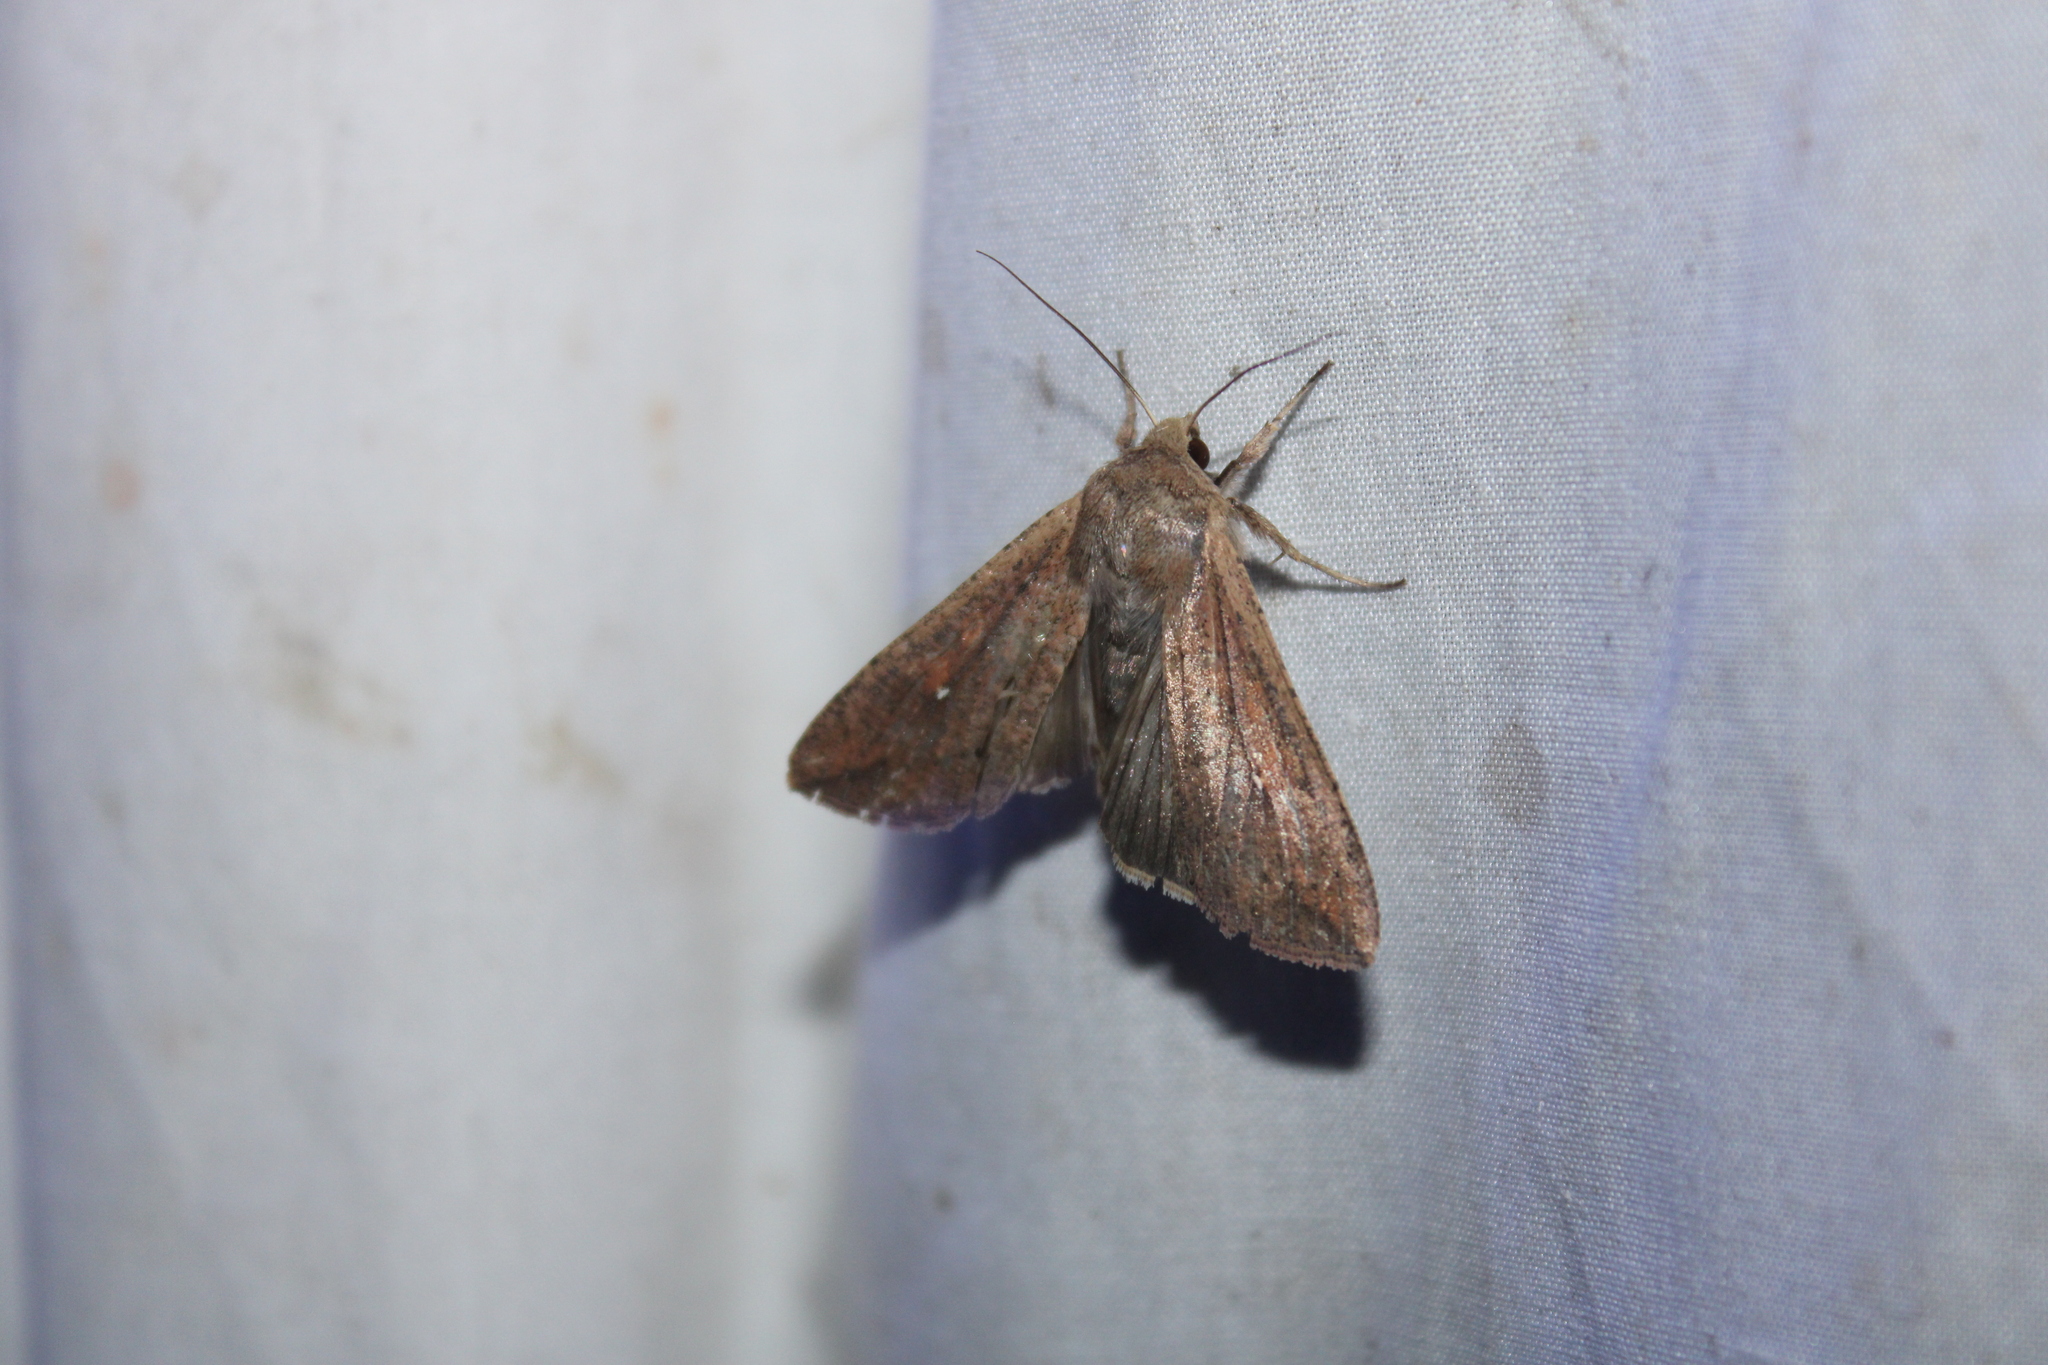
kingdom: Animalia
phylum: Arthropoda
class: Insecta
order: Lepidoptera
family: Noctuidae
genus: Mythimna
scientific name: Mythimna unipuncta
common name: White-speck
